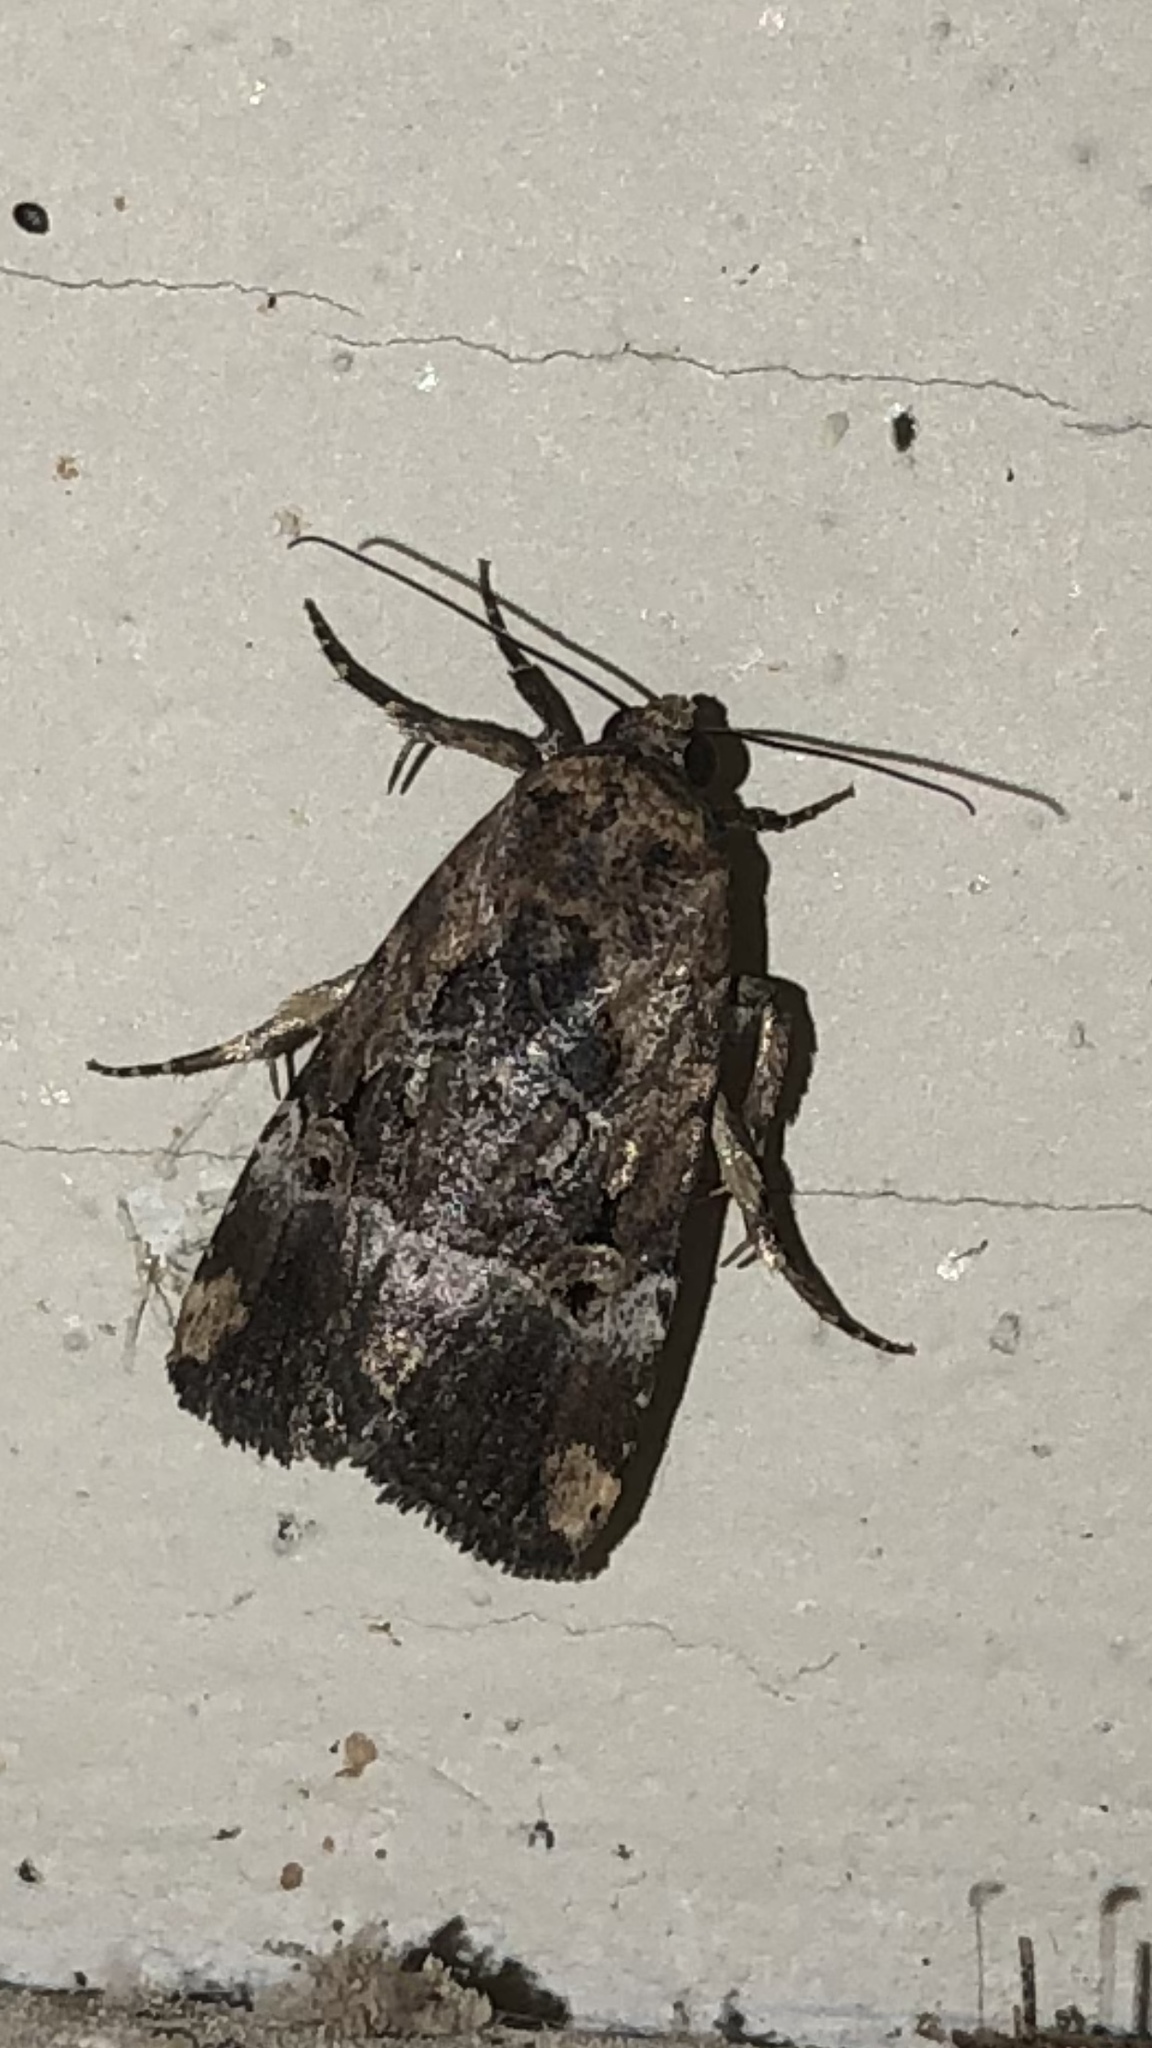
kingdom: Animalia
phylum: Arthropoda
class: Insecta
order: Lepidoptera
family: Noctuidae
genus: Elaphria
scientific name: Elaphria chalcedonia
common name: Chalcedony midget
